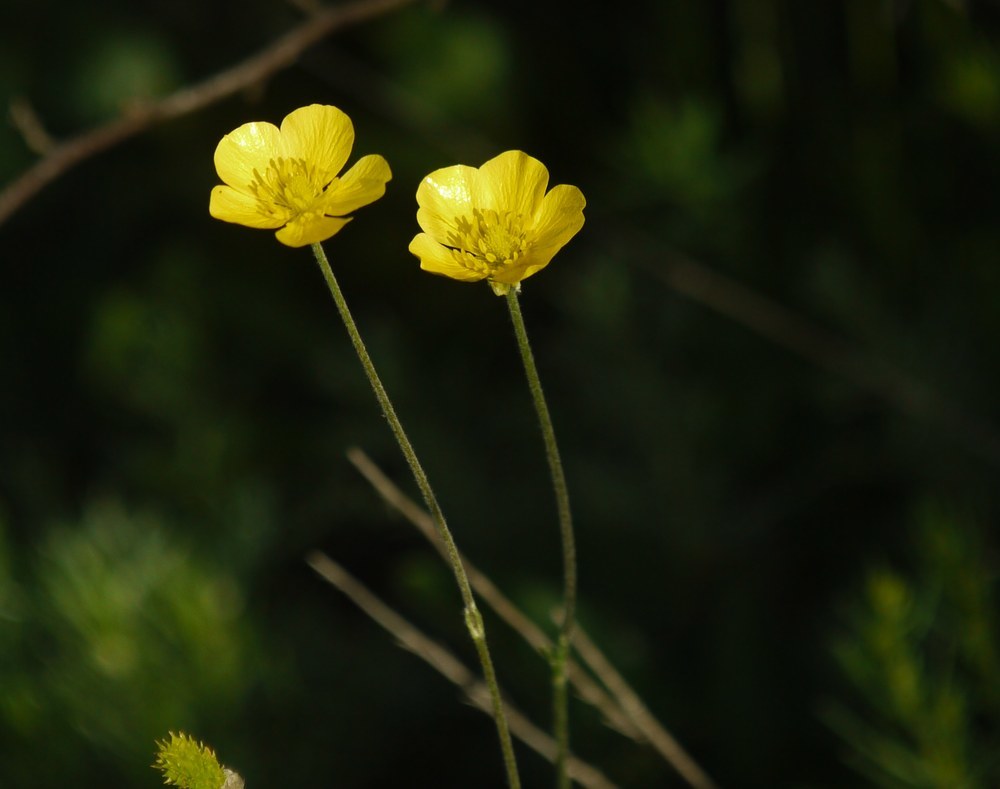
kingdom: Plantae
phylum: Tracheophyta
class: Magnoliopsida
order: Ranunculales
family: Ranunculaceae
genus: Ranunculus
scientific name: Ranunculus illyricus
